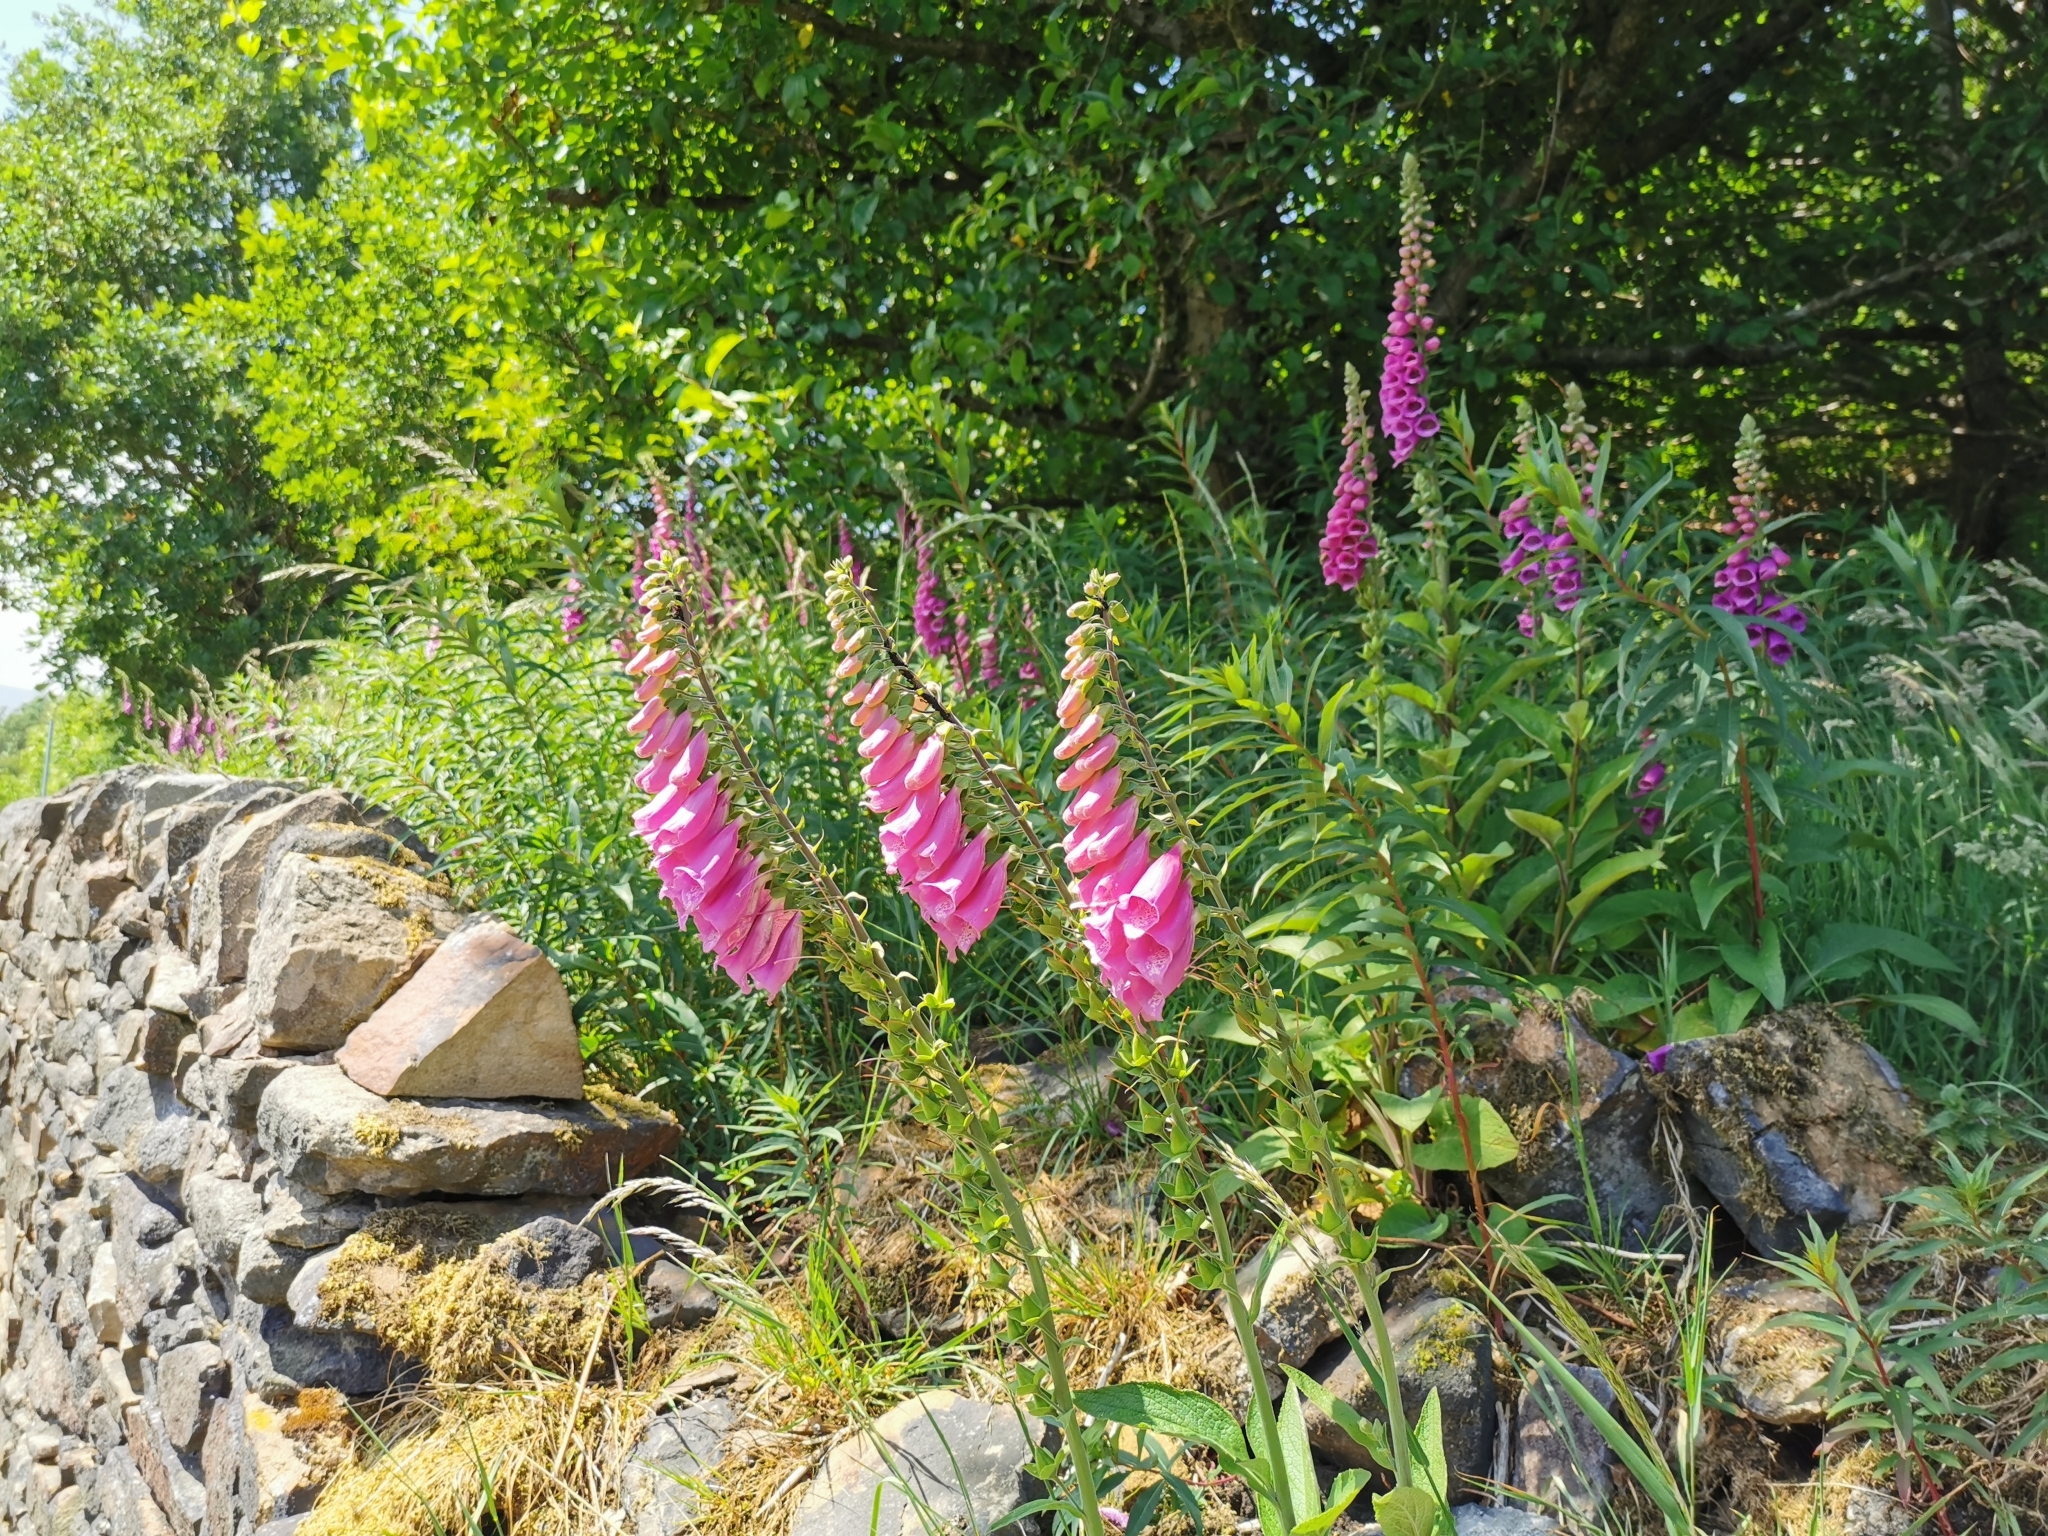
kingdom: Plantae
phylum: Tracheophyta
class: Magnoliopsida
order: Lamiales
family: Plantaginaceae
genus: Digitalis
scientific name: Digitalis purpurea
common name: Foxglove
